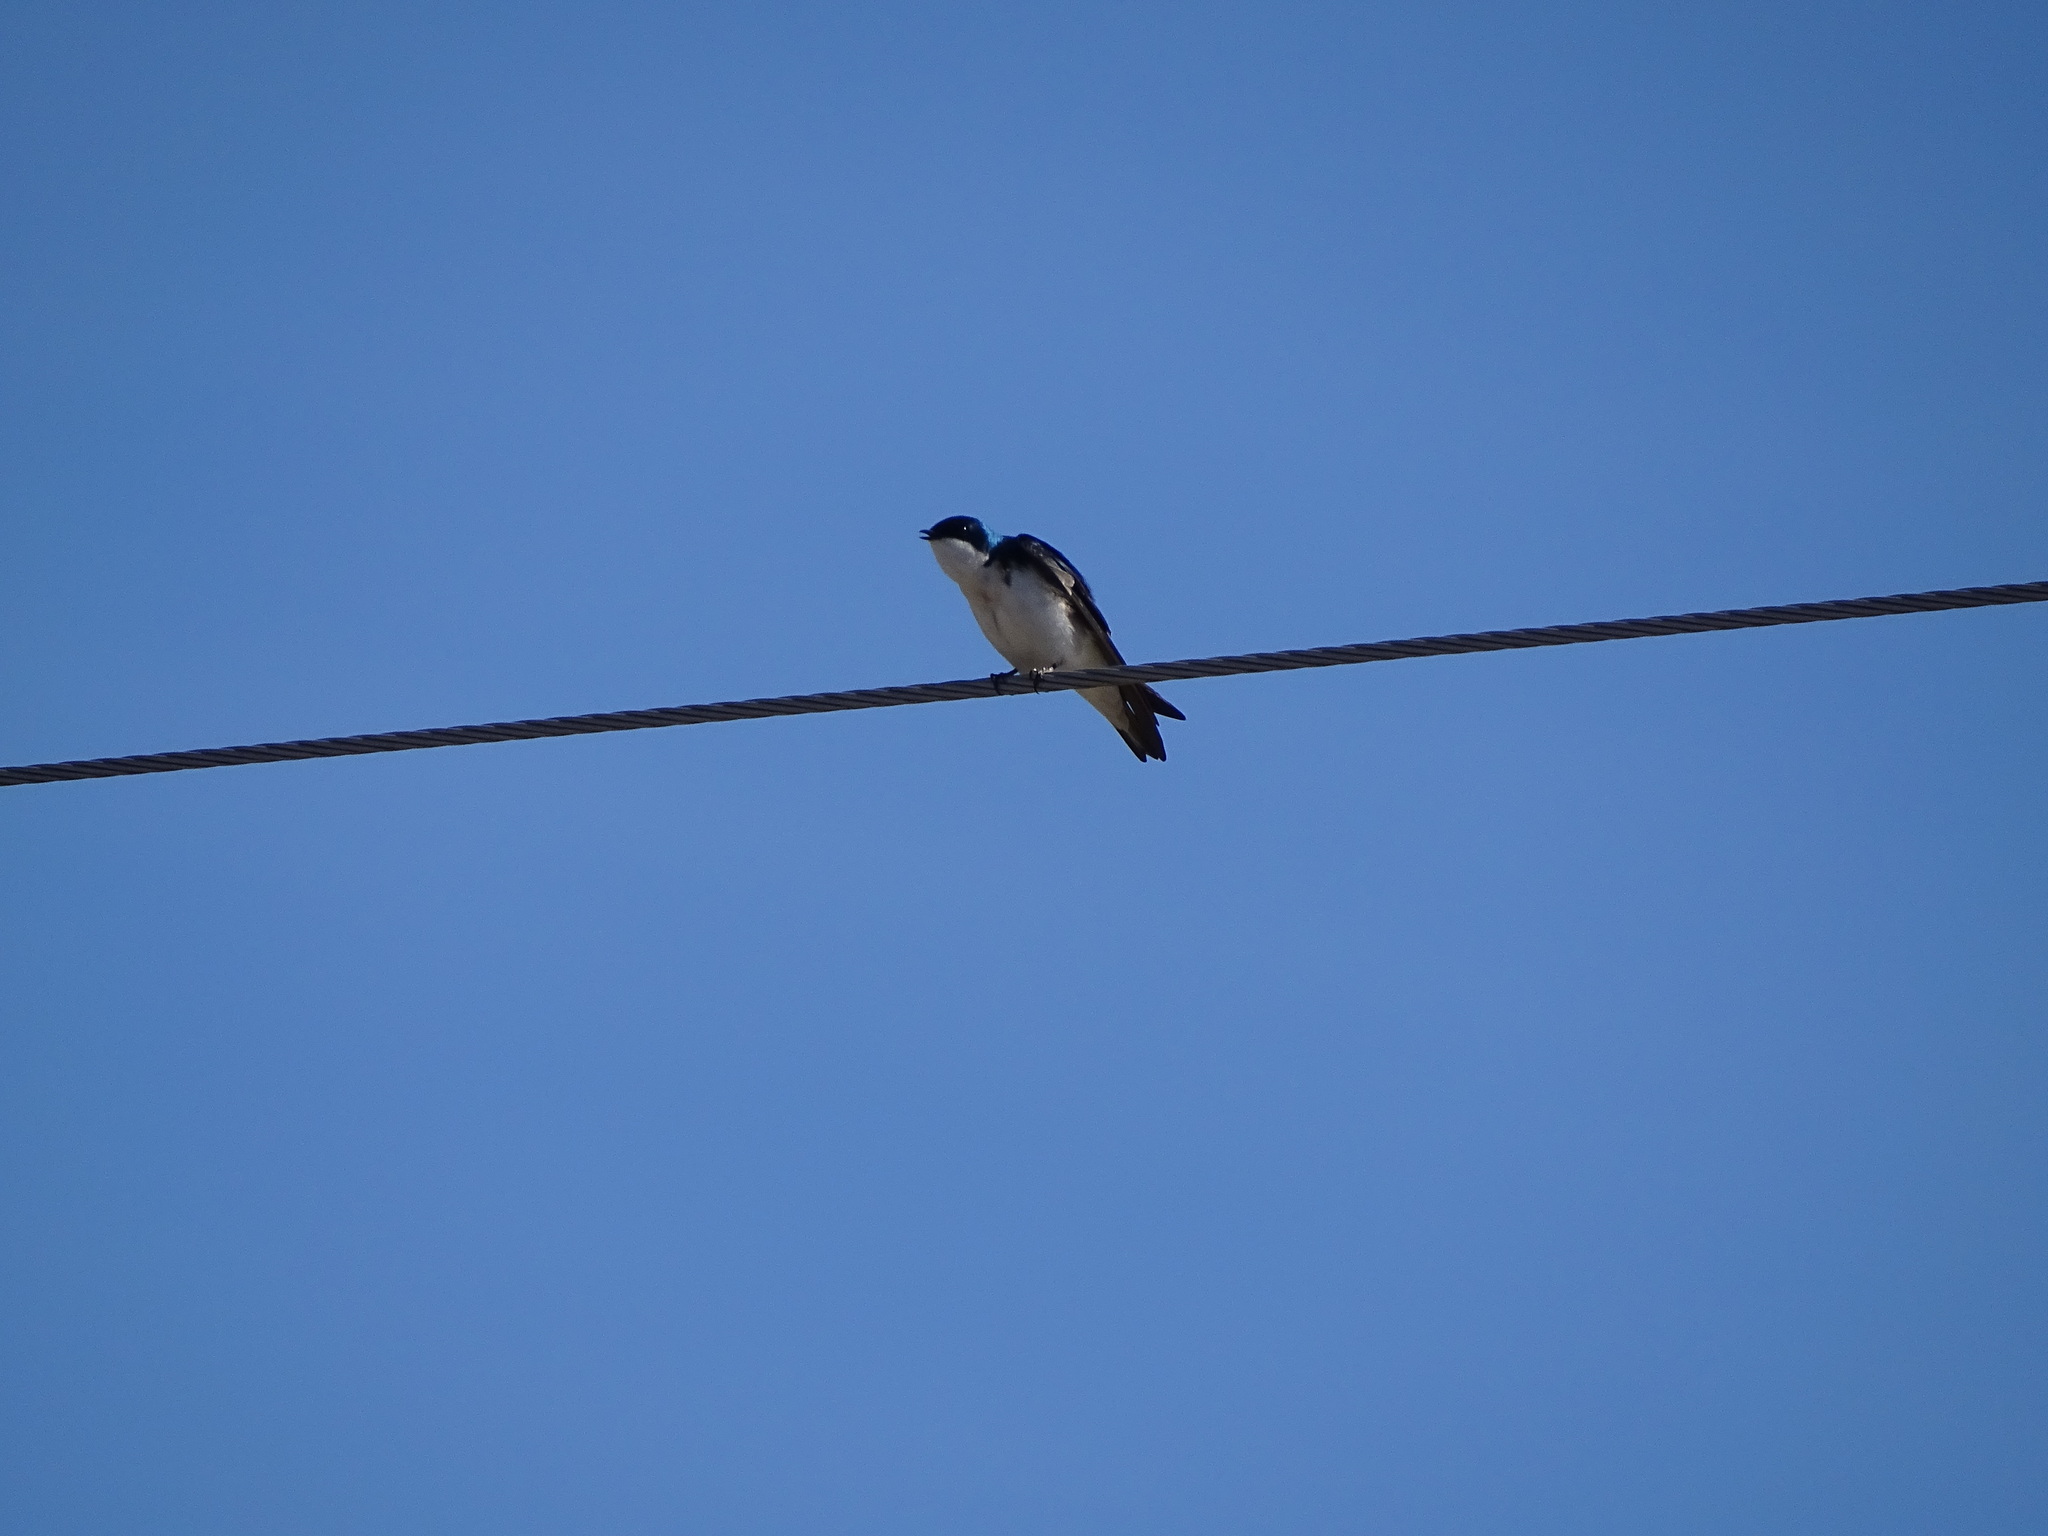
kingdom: Animalia
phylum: Chordata
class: Aves
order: Passeriformes
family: Hirundinidae
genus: Tachycineta
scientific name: Tachycineta bicolor
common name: Tree swallow
